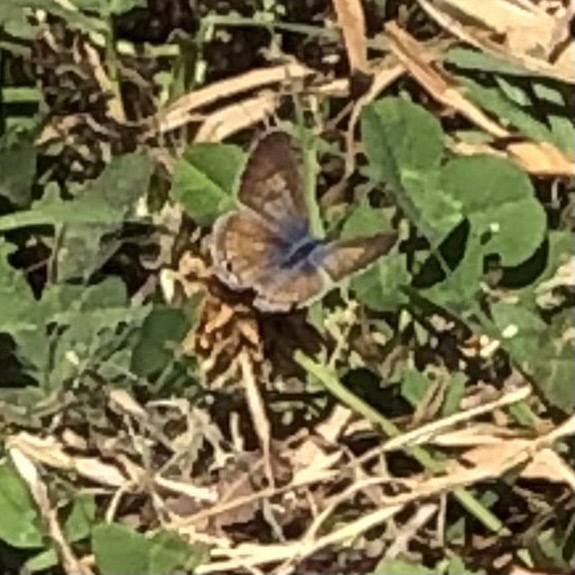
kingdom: Animalia
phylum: Arthropoda
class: Insecta
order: Lepidoptera
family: Lycaenidae
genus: Leptotes
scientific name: Leptotes marina
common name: Marine blue
